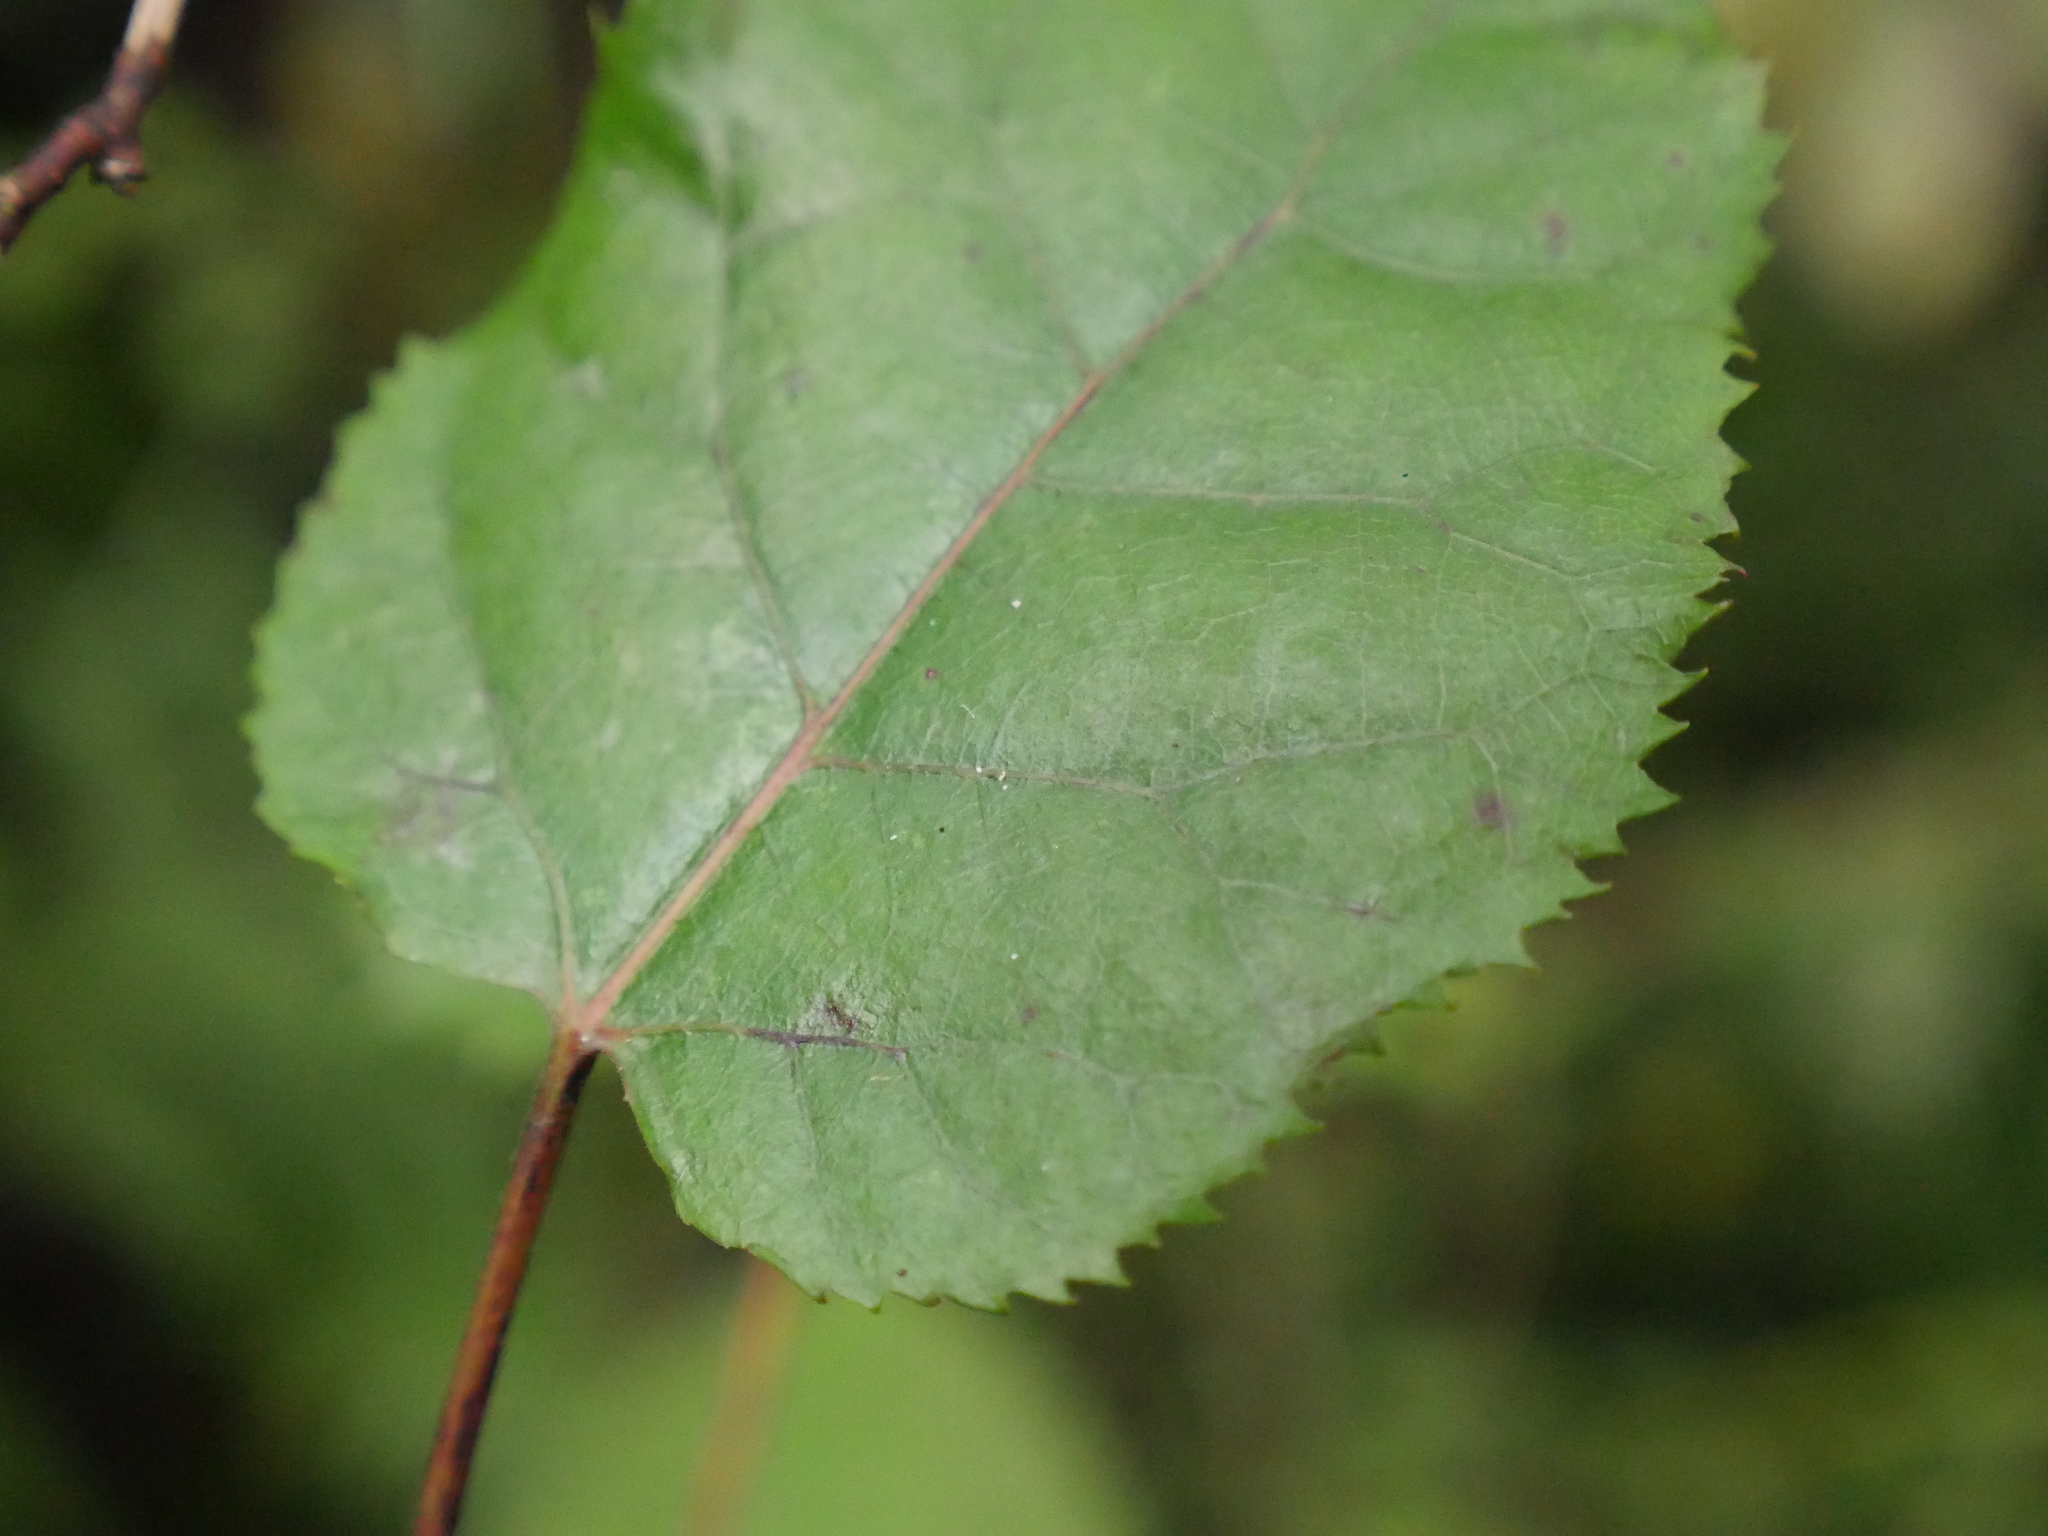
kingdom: Plantae
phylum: Tracheophyta
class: Magnoliopsida
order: Oxalidales
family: Elaeocarpaceae
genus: Aristotelia
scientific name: Aristotelia serrata
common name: New zealand wineberry
